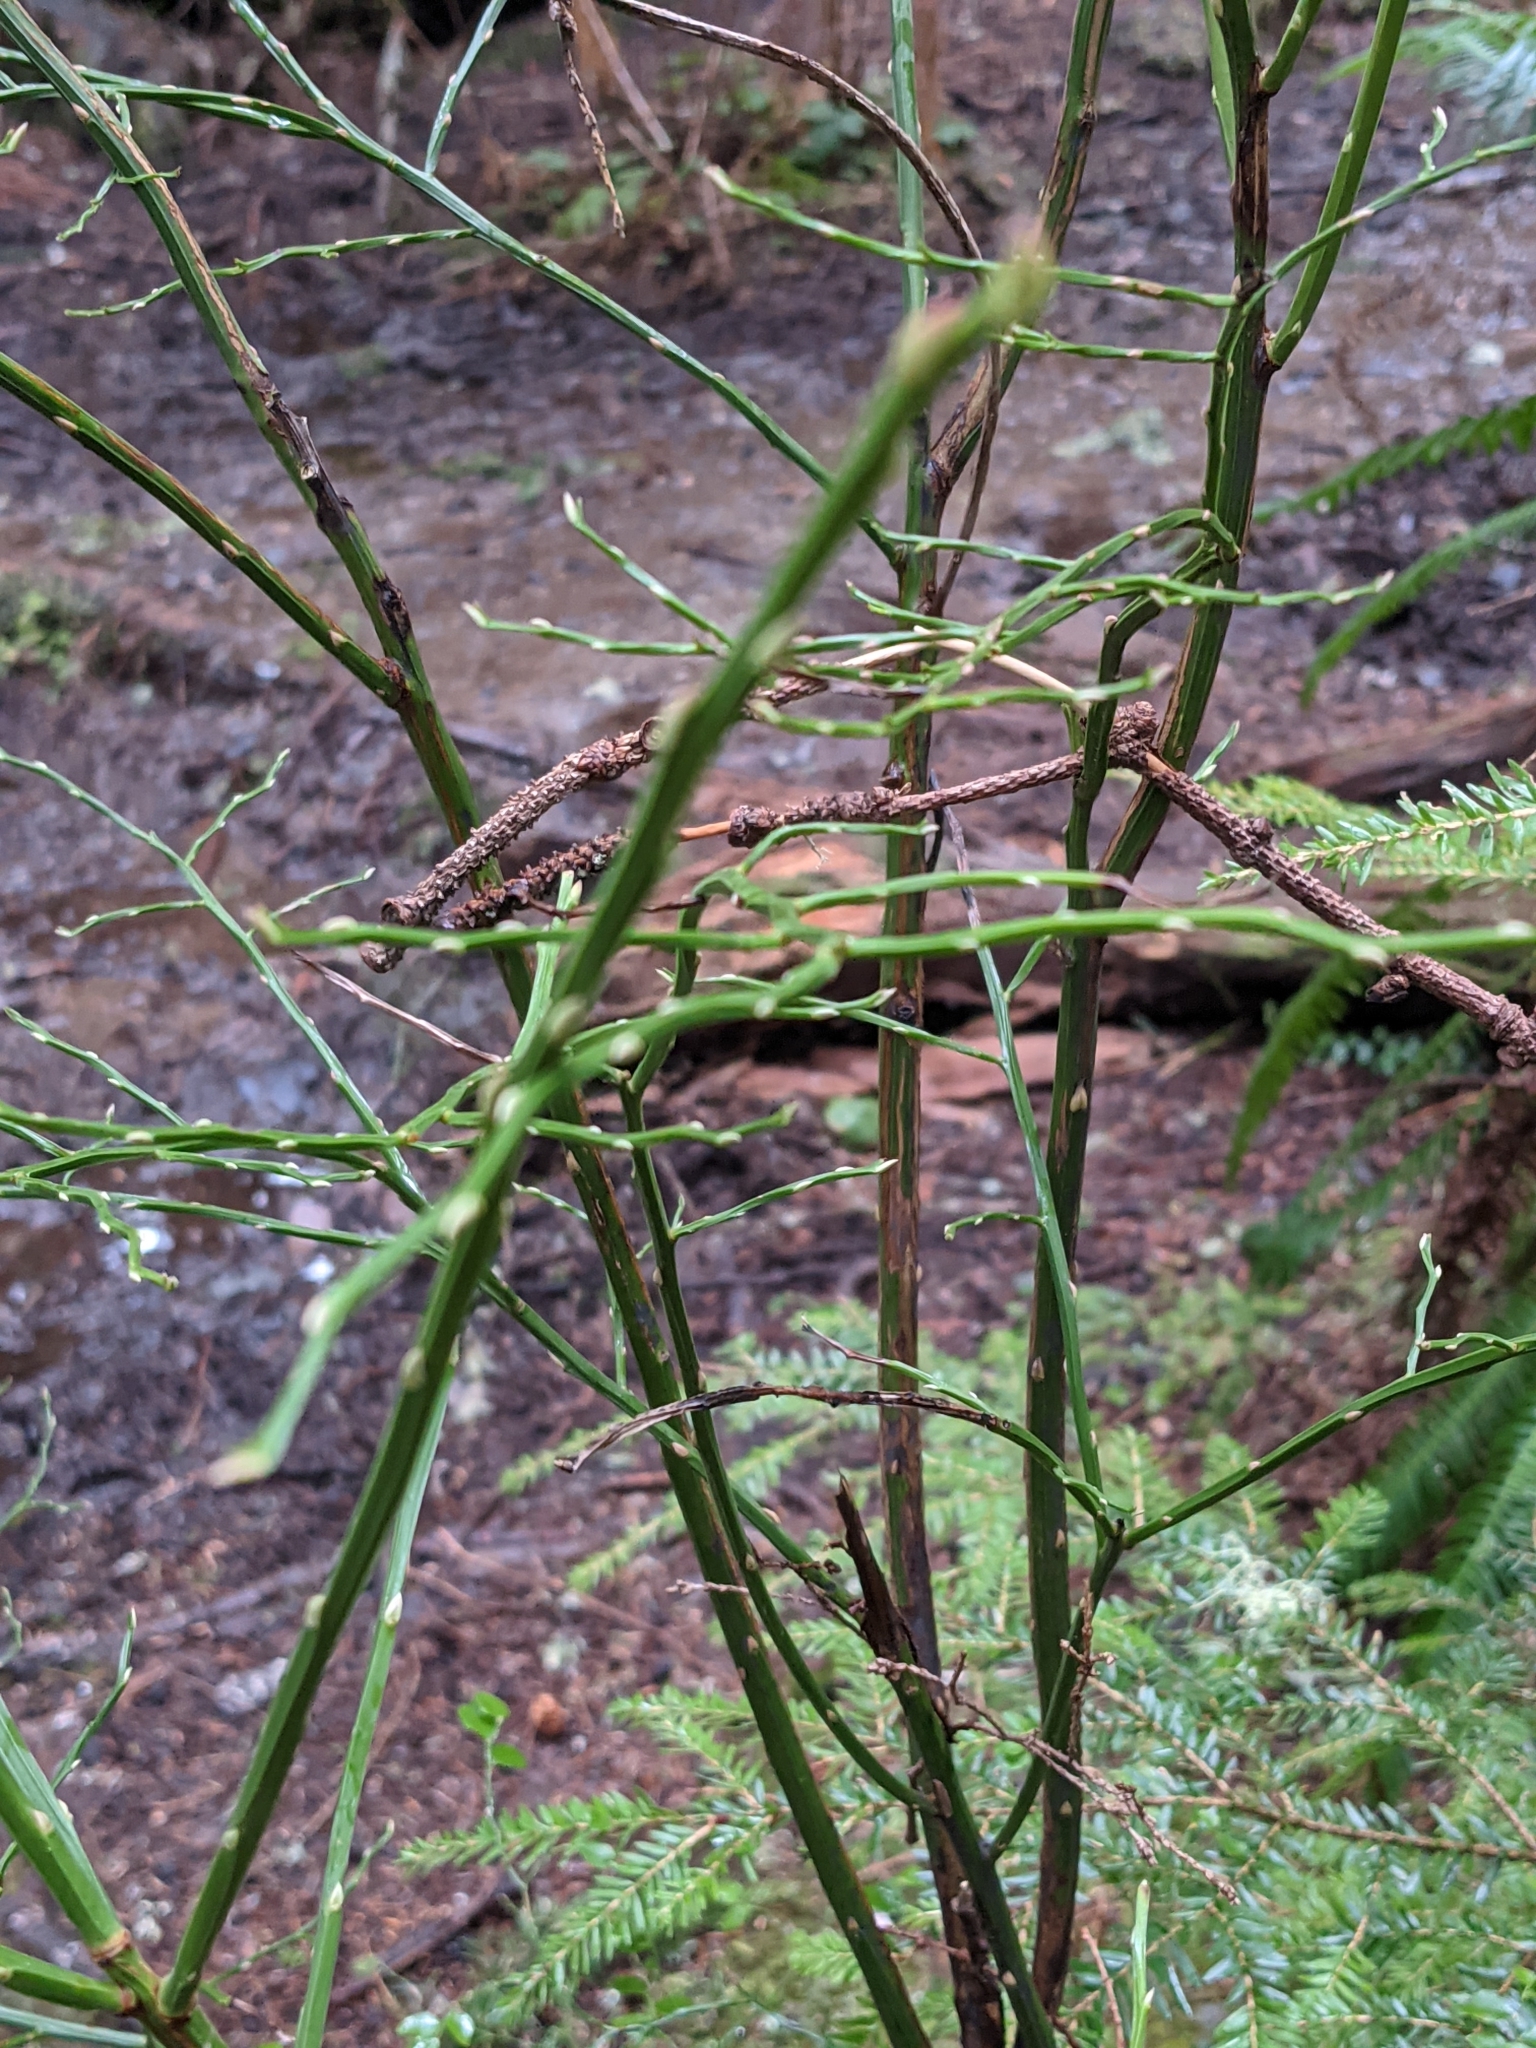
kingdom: Plantae
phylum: Tracheophyta
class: Magnoliopsida
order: Ericales
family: Ericaceae
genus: Vaccinium
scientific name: Vaccinium parvifolium
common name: Red-huckleberry
